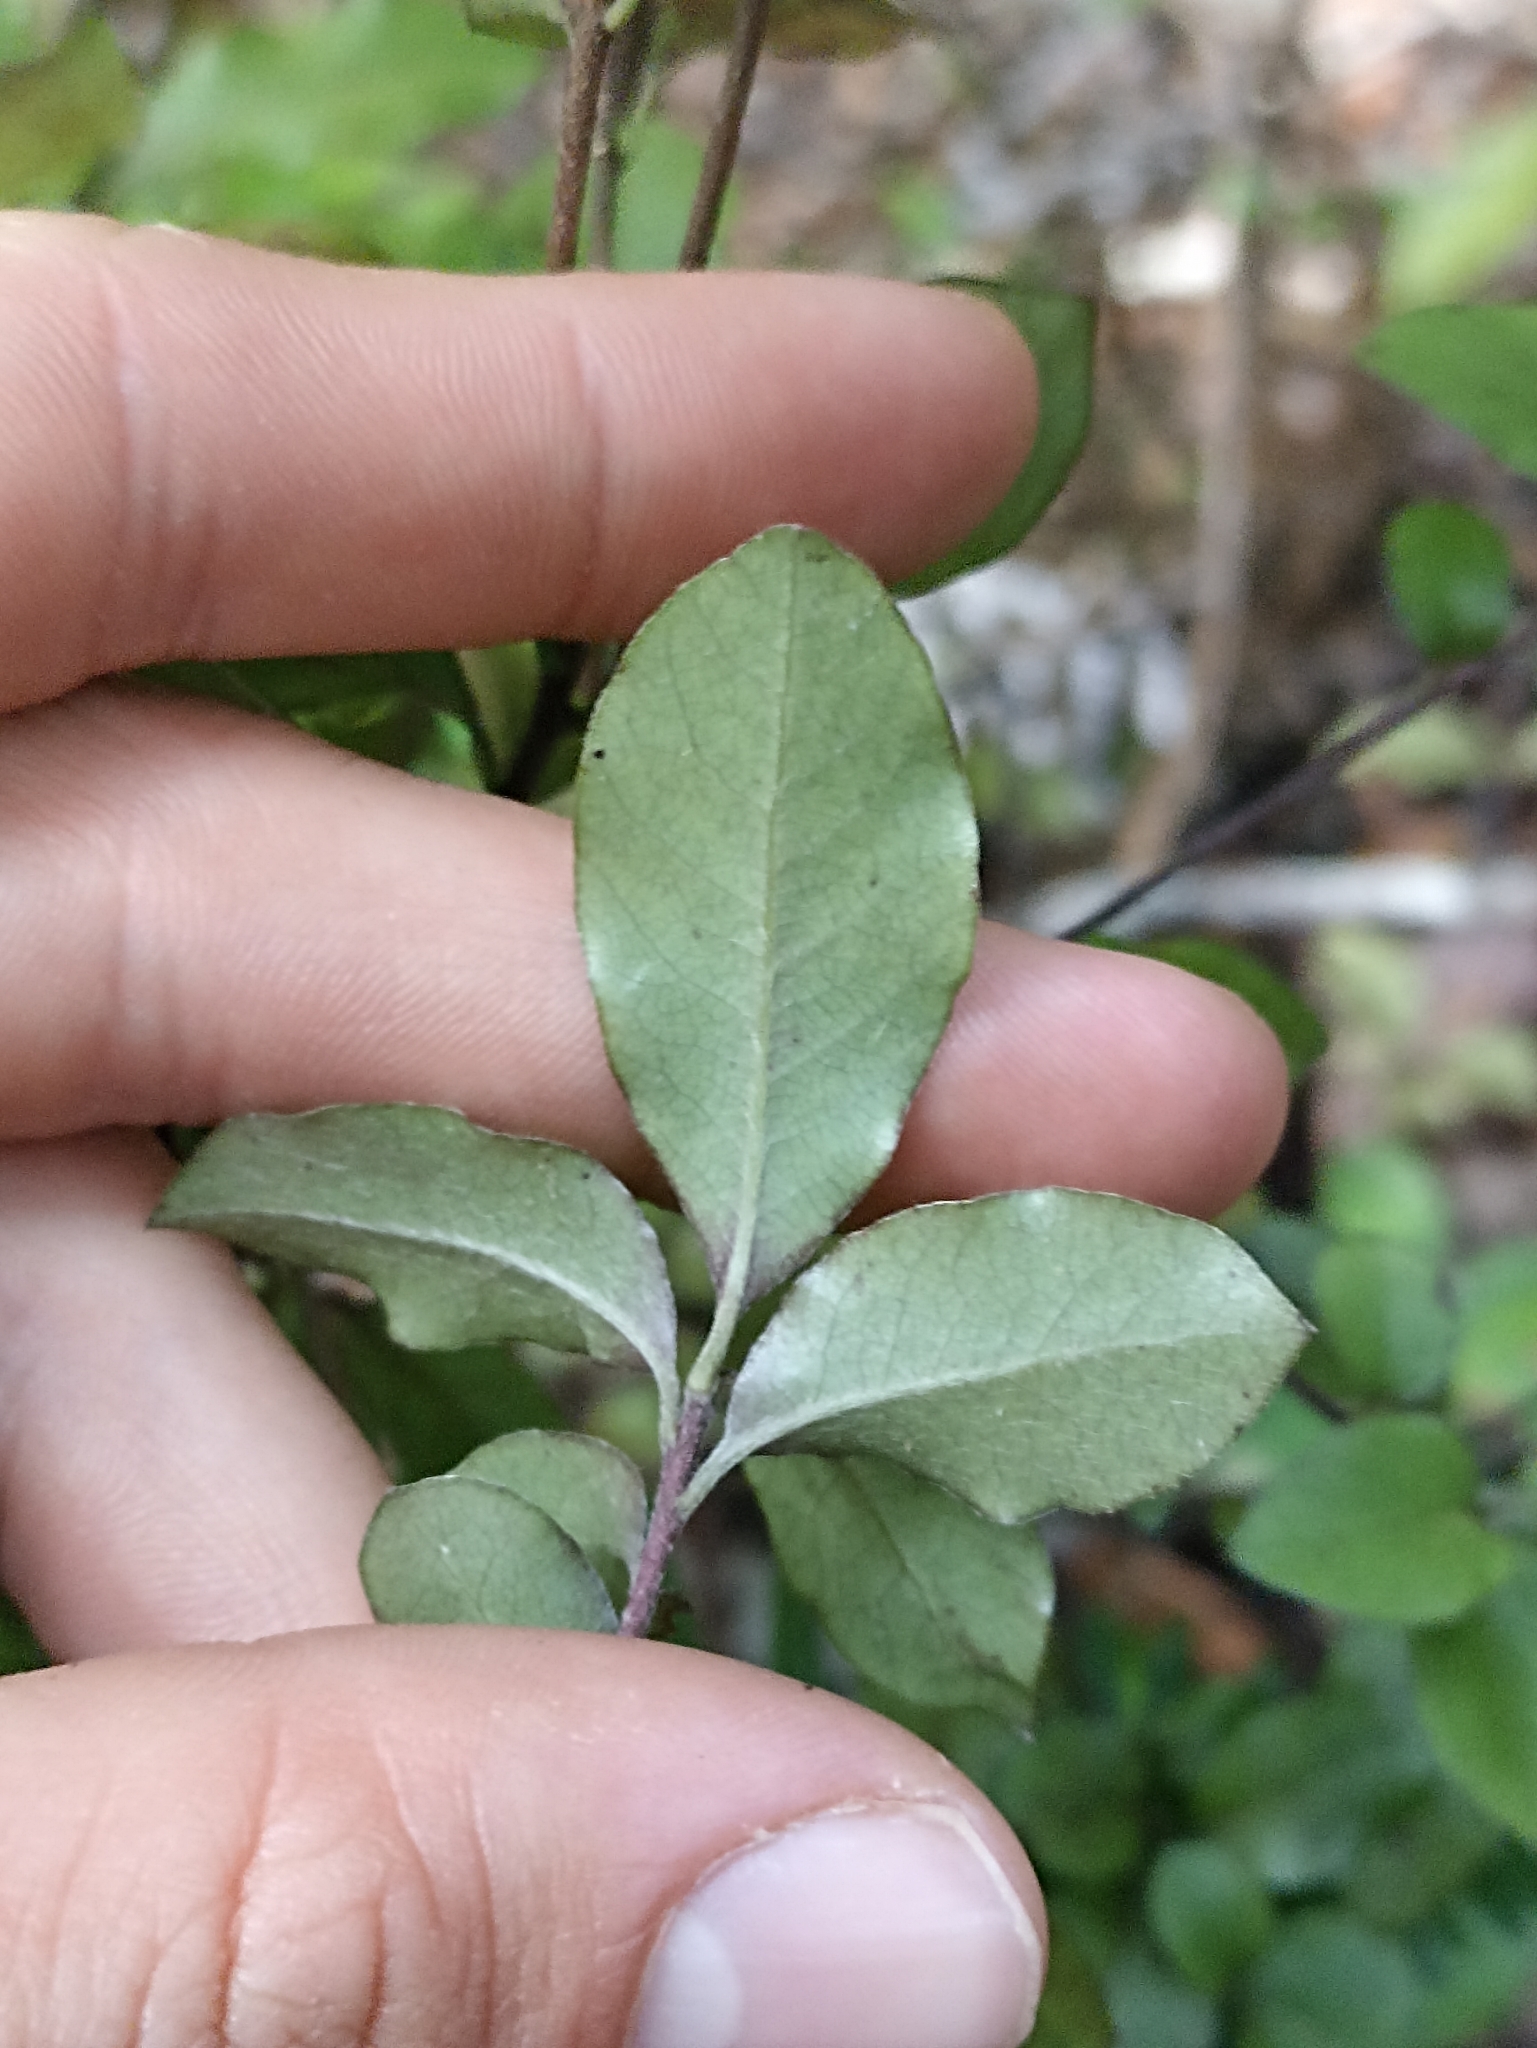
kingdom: Plantae
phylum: Tracheophyta
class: Magnoliopsida
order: Apiales
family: Pittosporaceae
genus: Pittosporum
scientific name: Pittosporum tenuifolium
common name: Kohuhu
